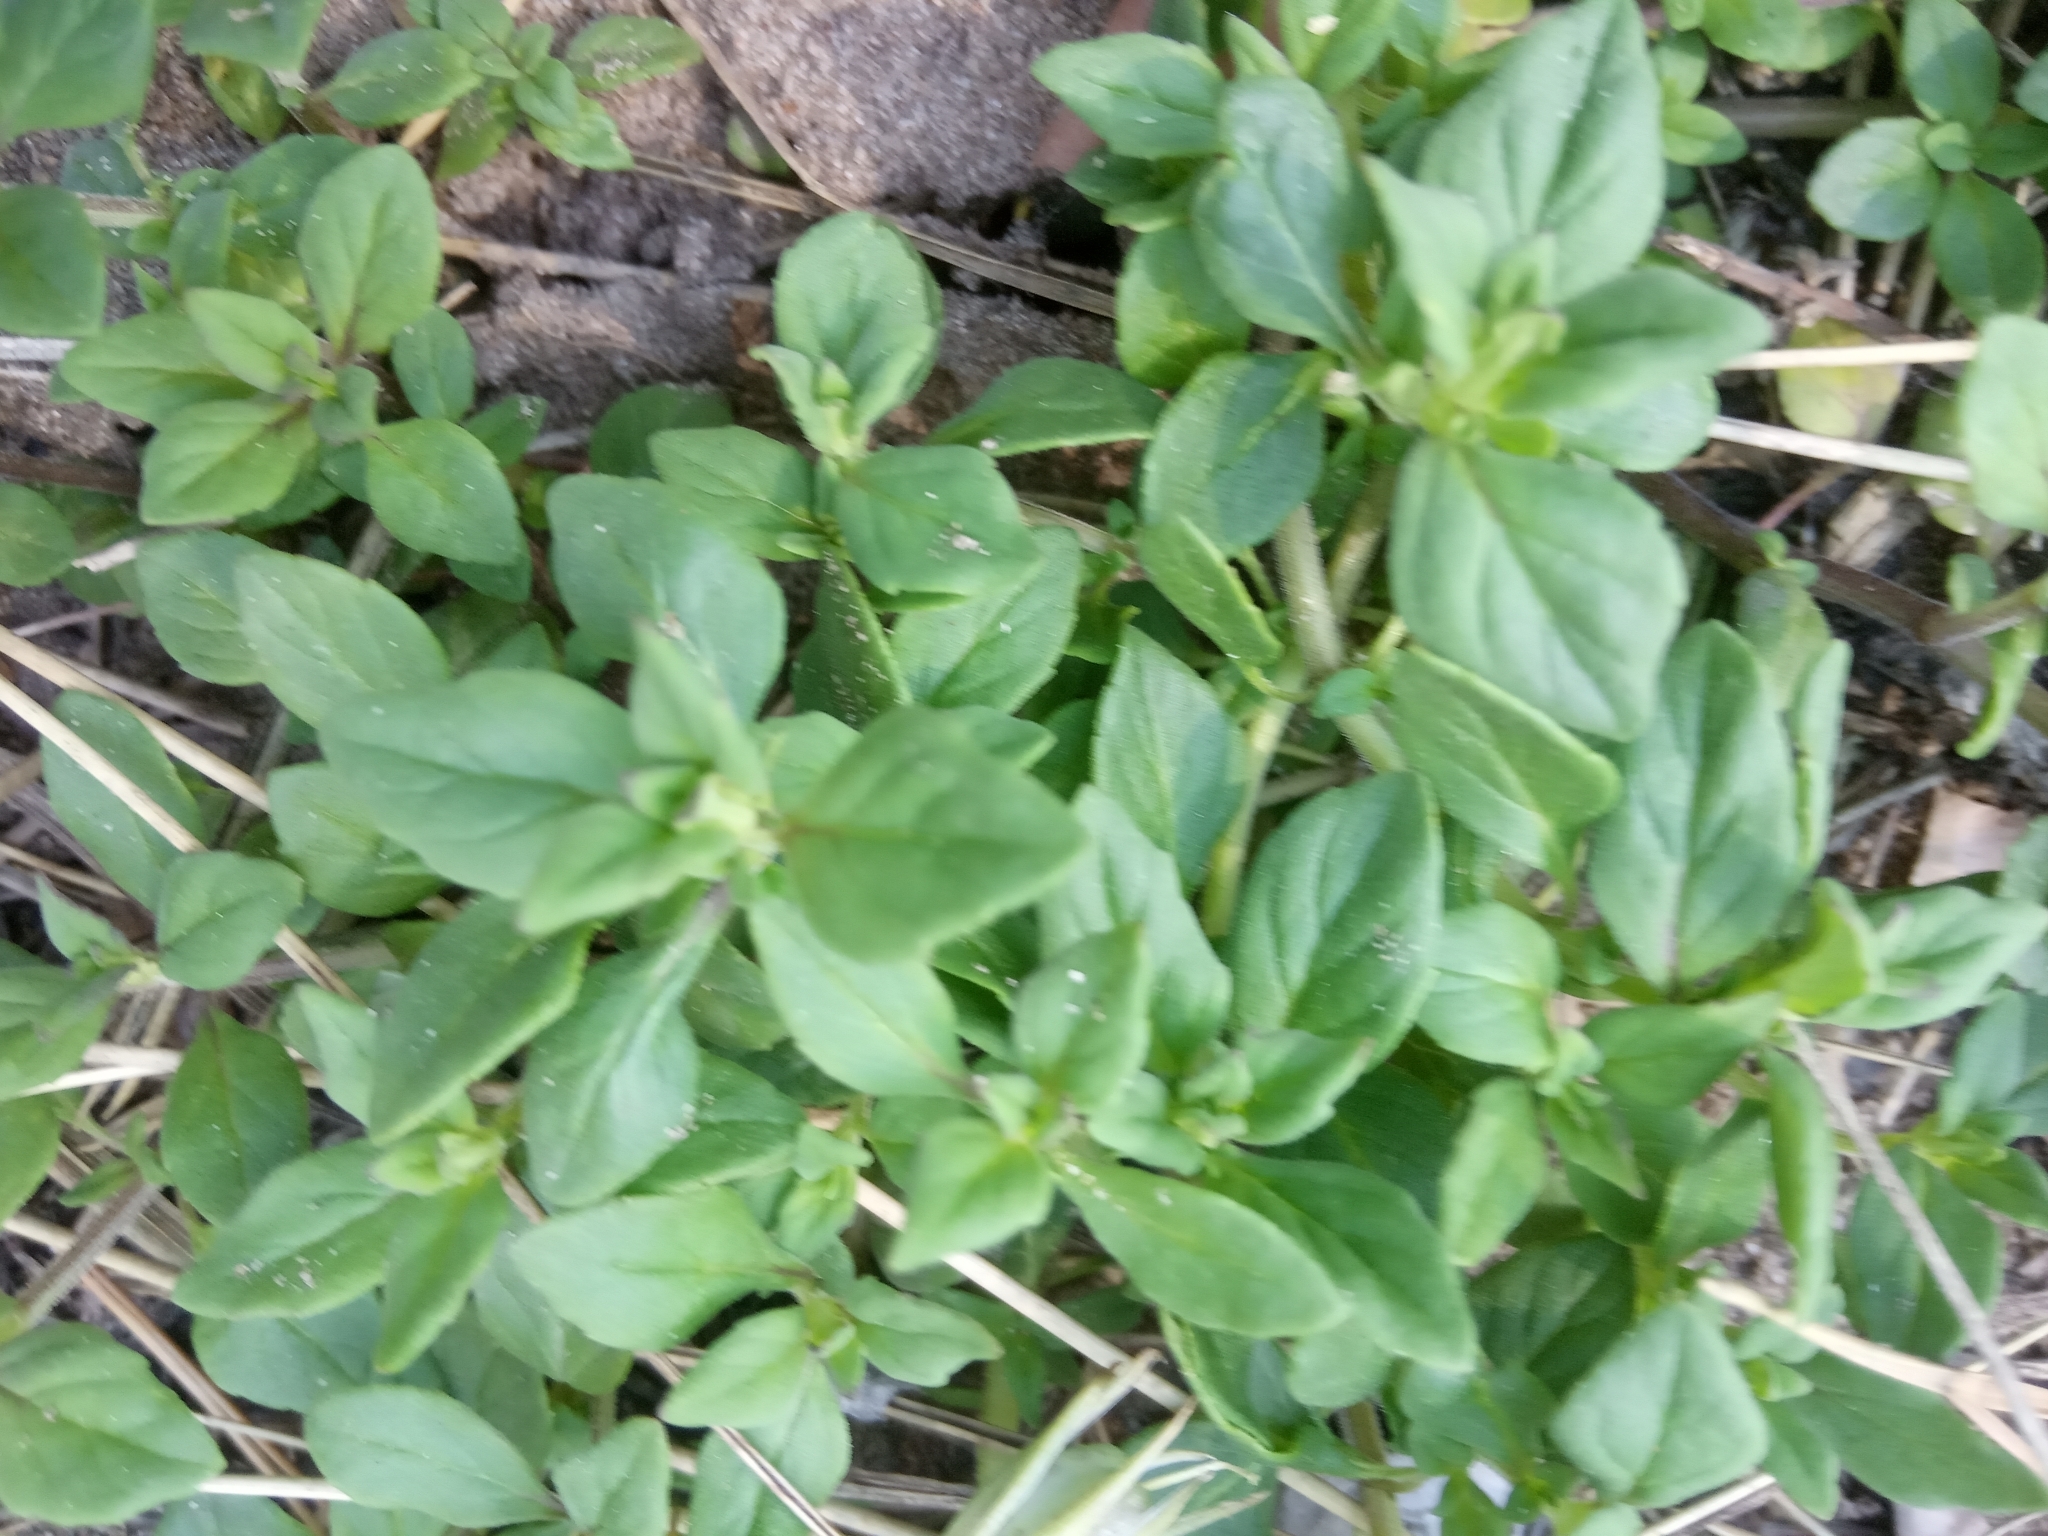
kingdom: Plantae
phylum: Tracheophyta
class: Magnoliopsida
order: Lamiales
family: Lamiaceae
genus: Clinopodium
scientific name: Clinopodium acinos
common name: Basil thyme
